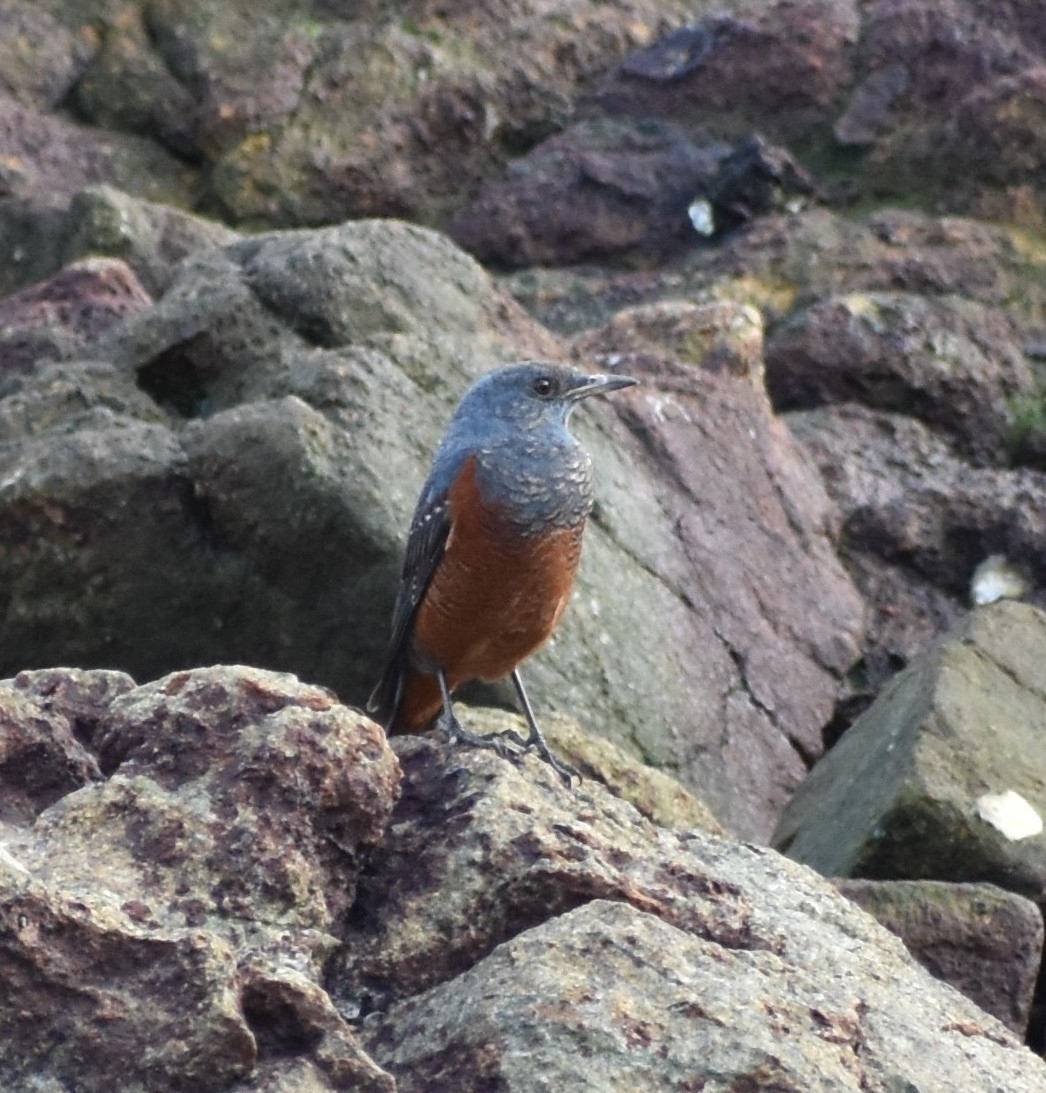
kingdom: Animalia
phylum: Chordata
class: Aves
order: Passeriformes
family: Muscicapidae
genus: Monticola
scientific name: Monticola solitarius
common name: Blue rock thrush
